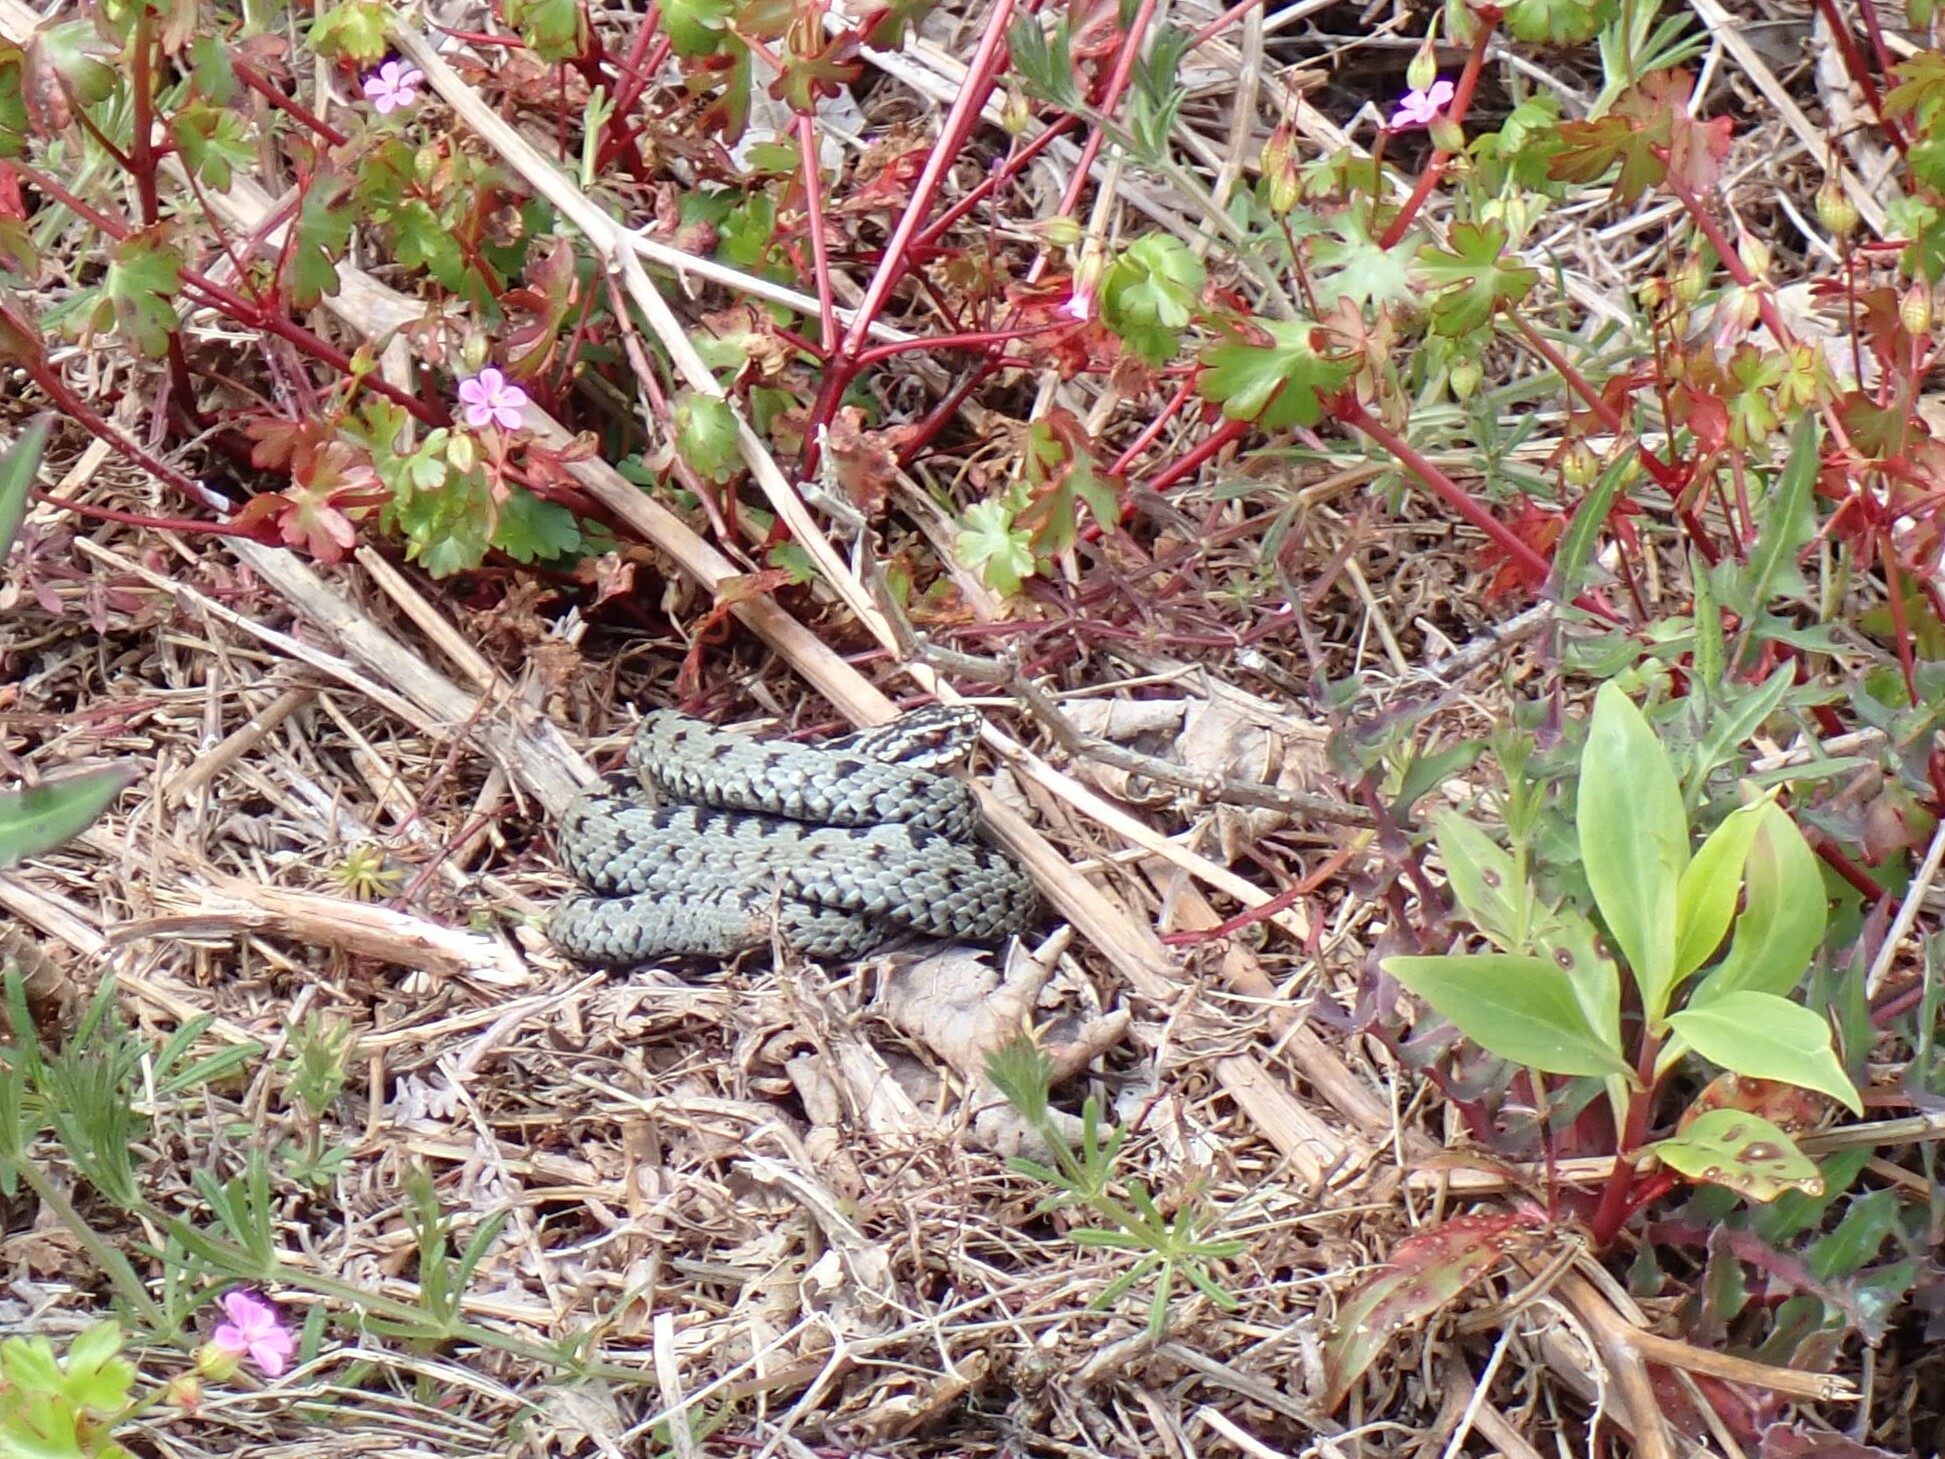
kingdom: Animalia
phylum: Chordata
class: Squamata
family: Viperidae
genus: Vipera
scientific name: Vipera berus
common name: Adder
